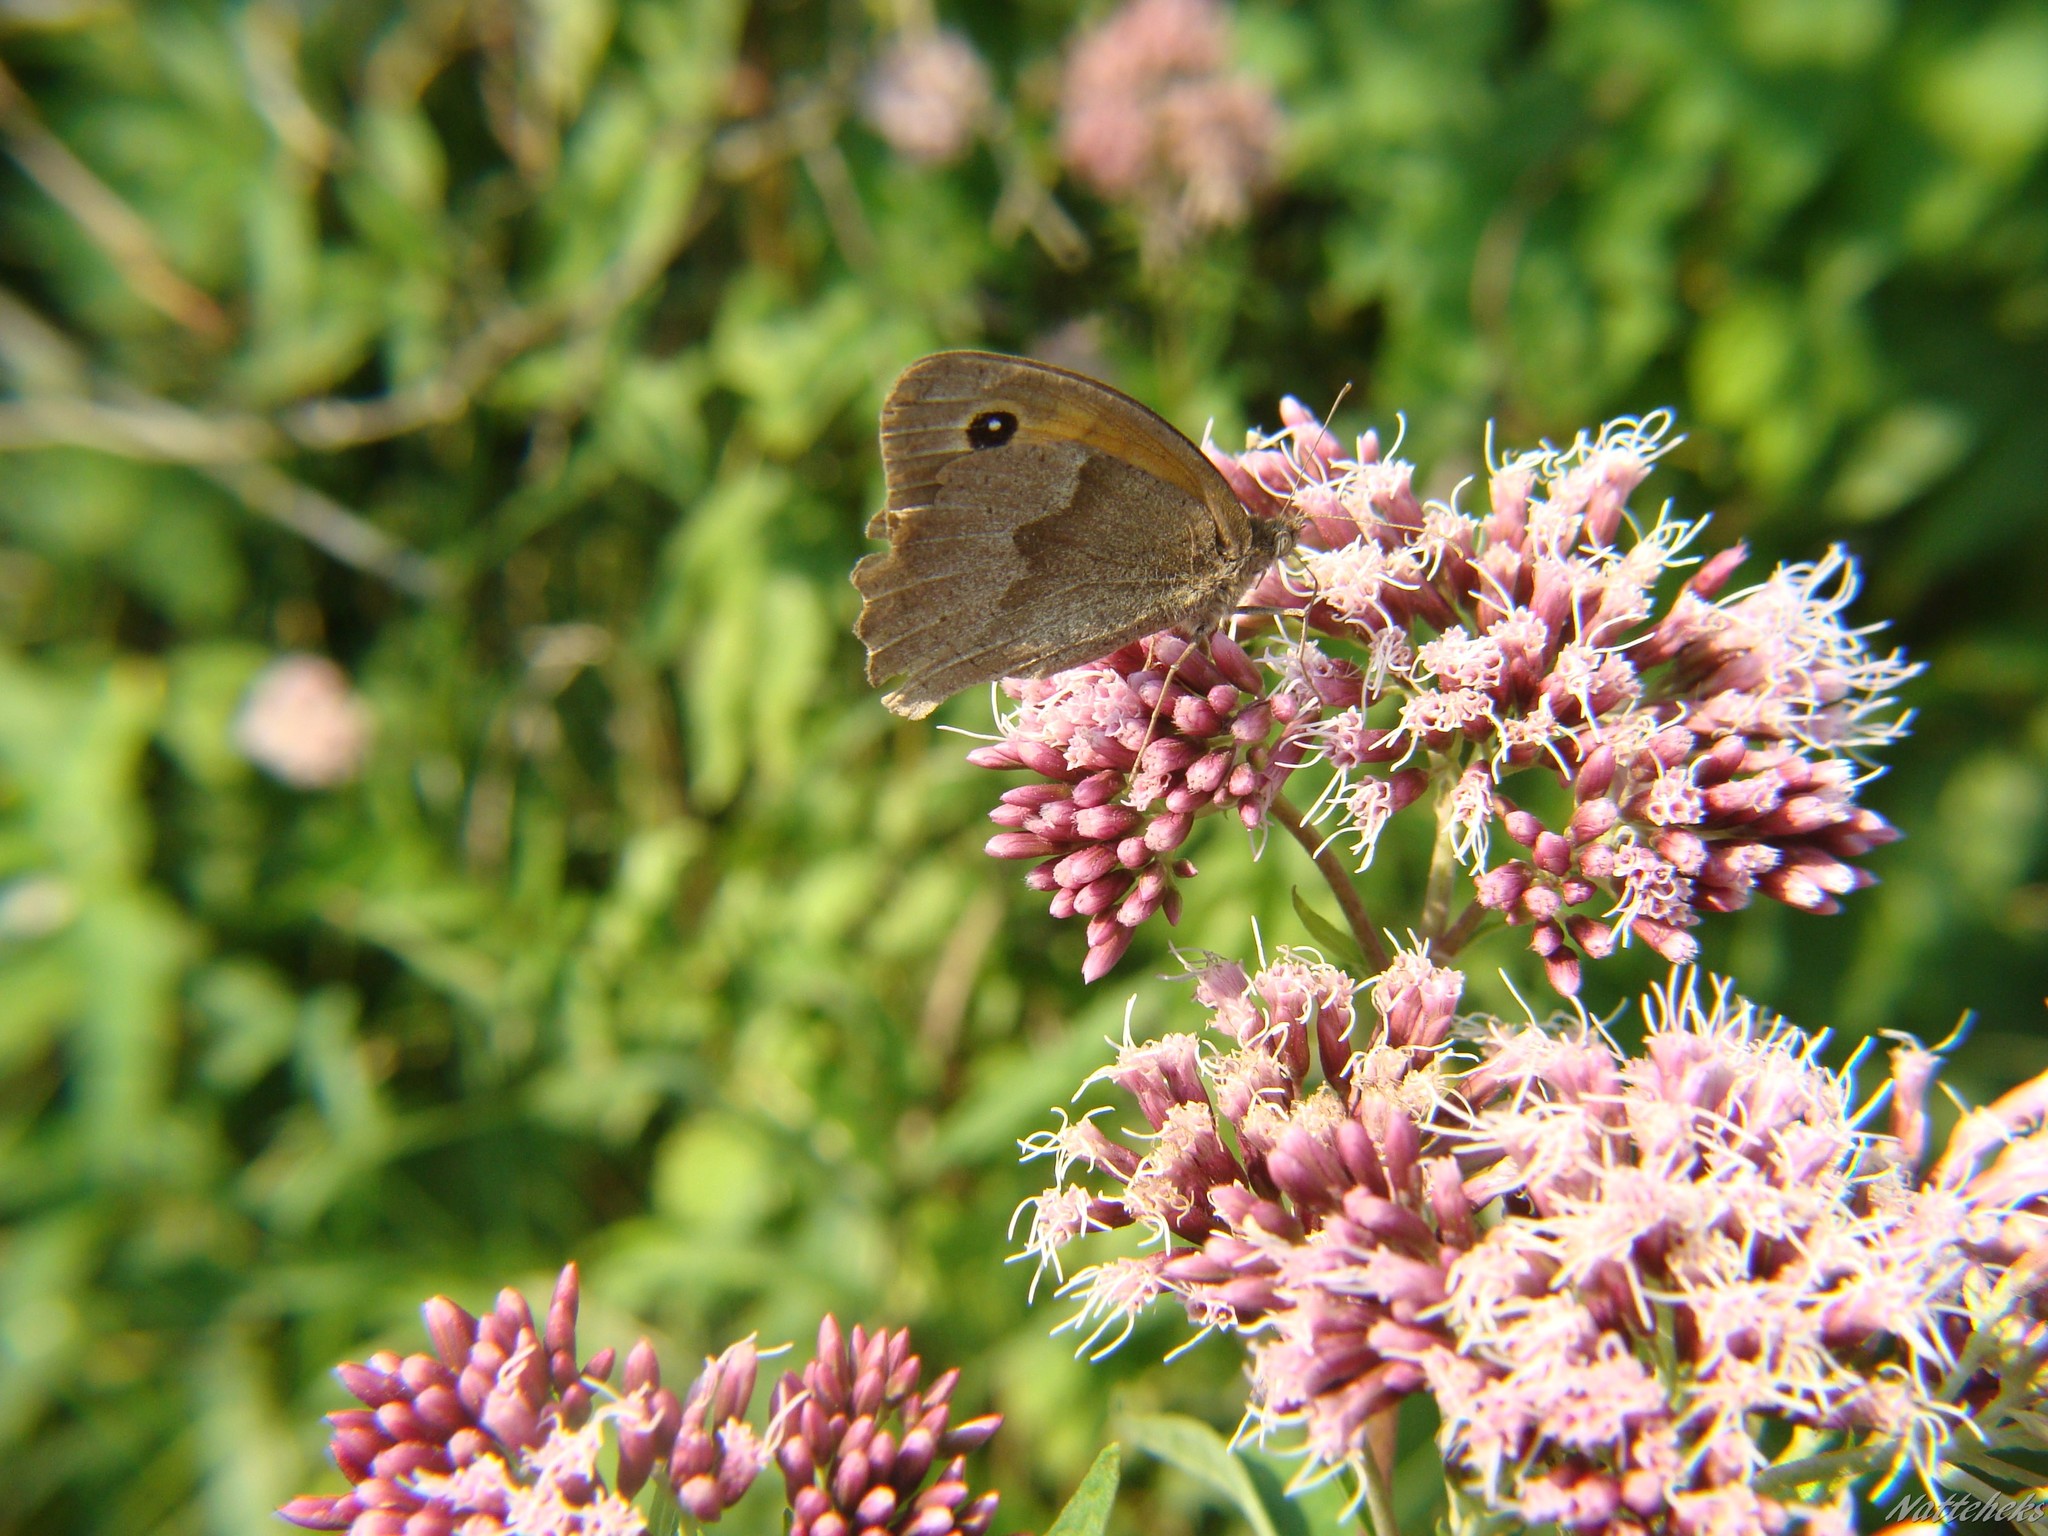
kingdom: Animalia
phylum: Arthropoda
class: Insecta
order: Lepidoptera
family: Nymphalidae
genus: Maniola
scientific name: Maniola jurtina
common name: Meadow brown
